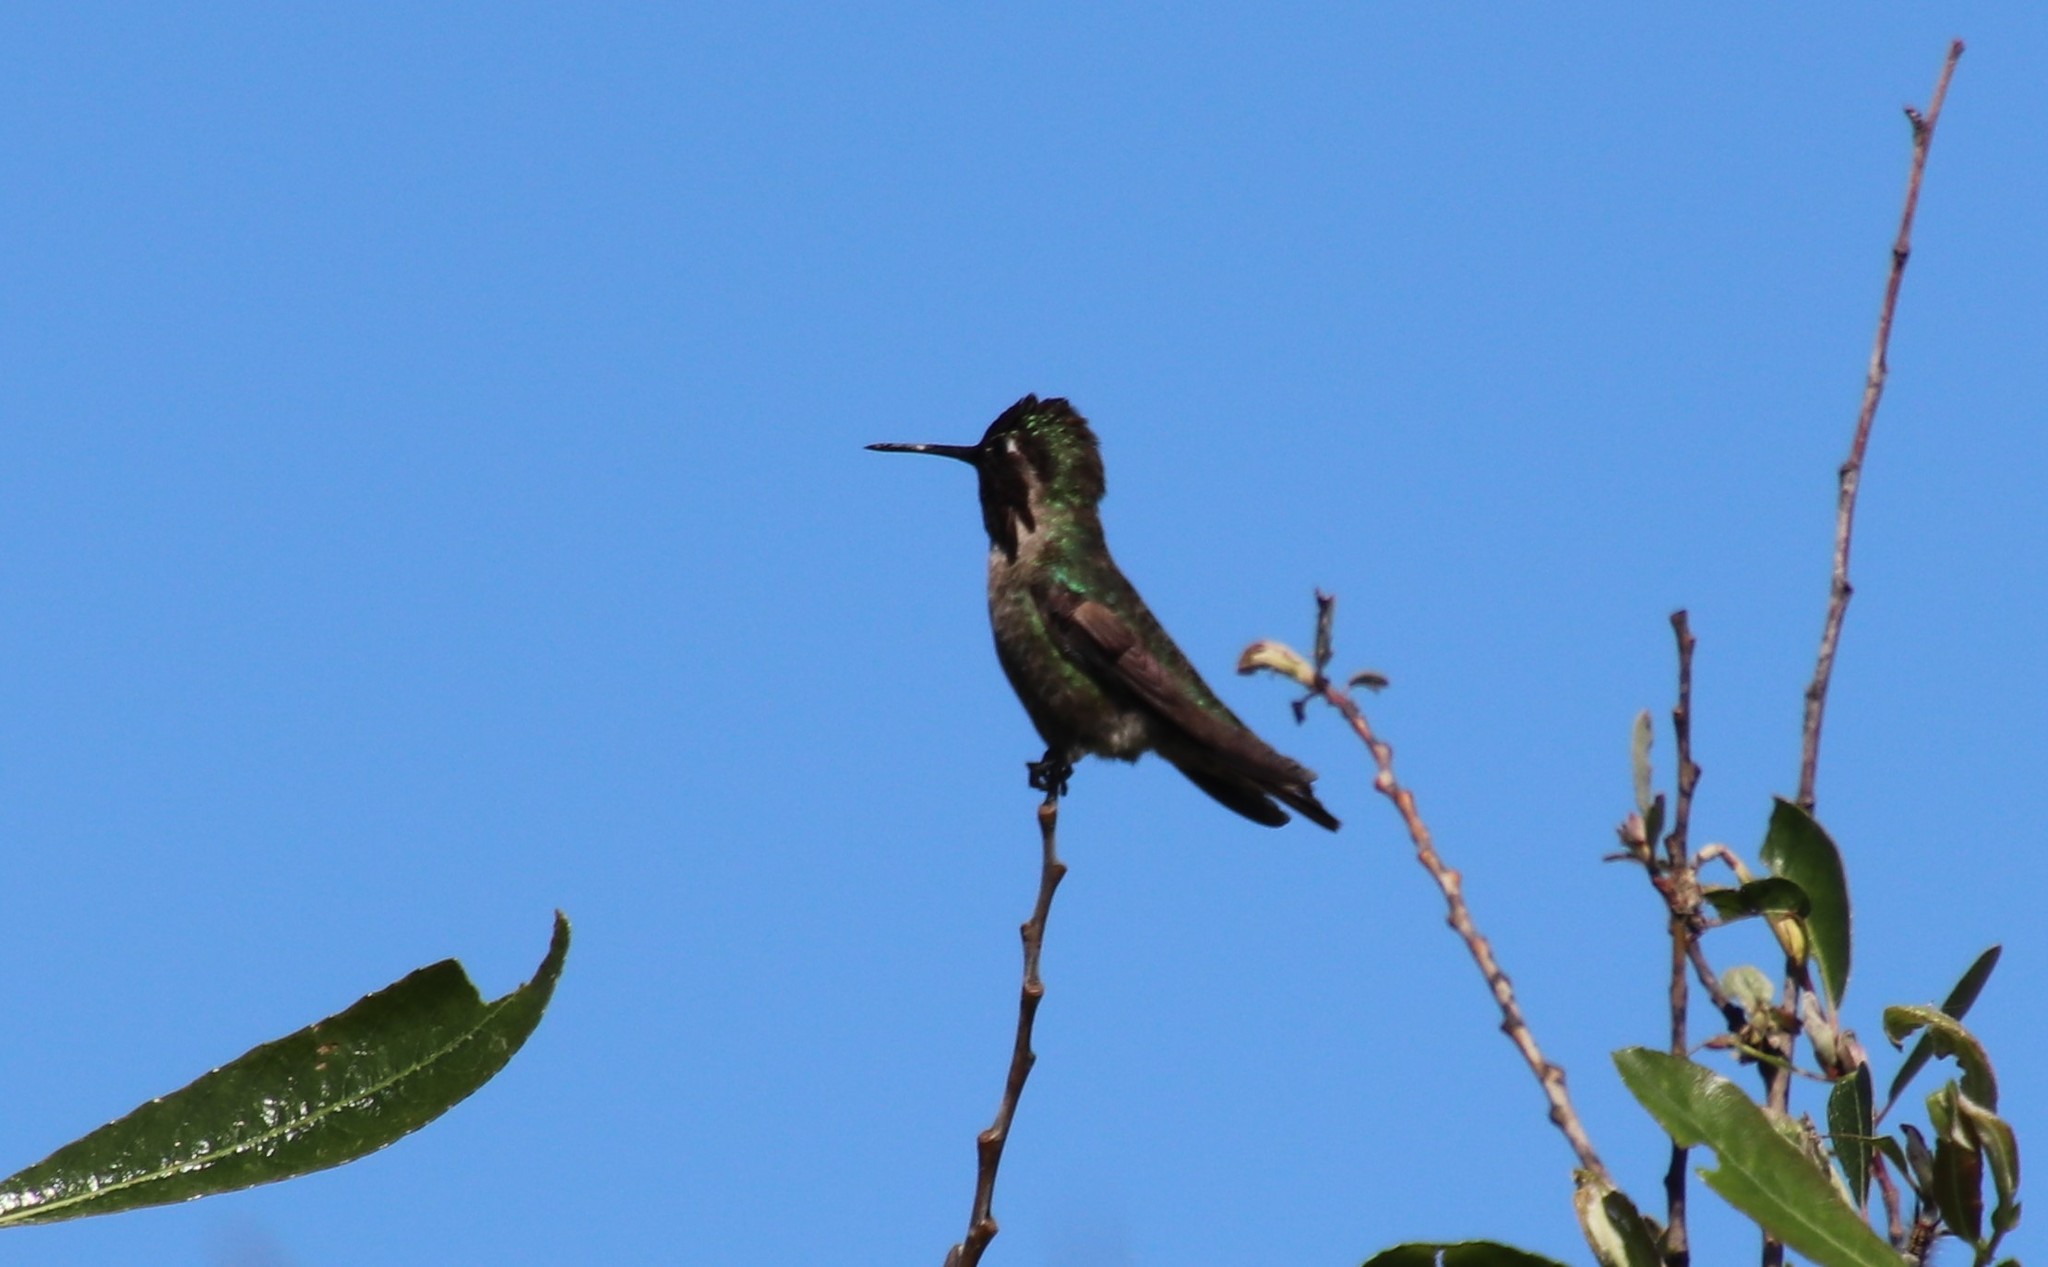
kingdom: Animalia
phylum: Chordata
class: Aves
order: Apodiformes
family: Trochilidae
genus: Calypte
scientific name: Calypte anna
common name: Anna's hummingbird
